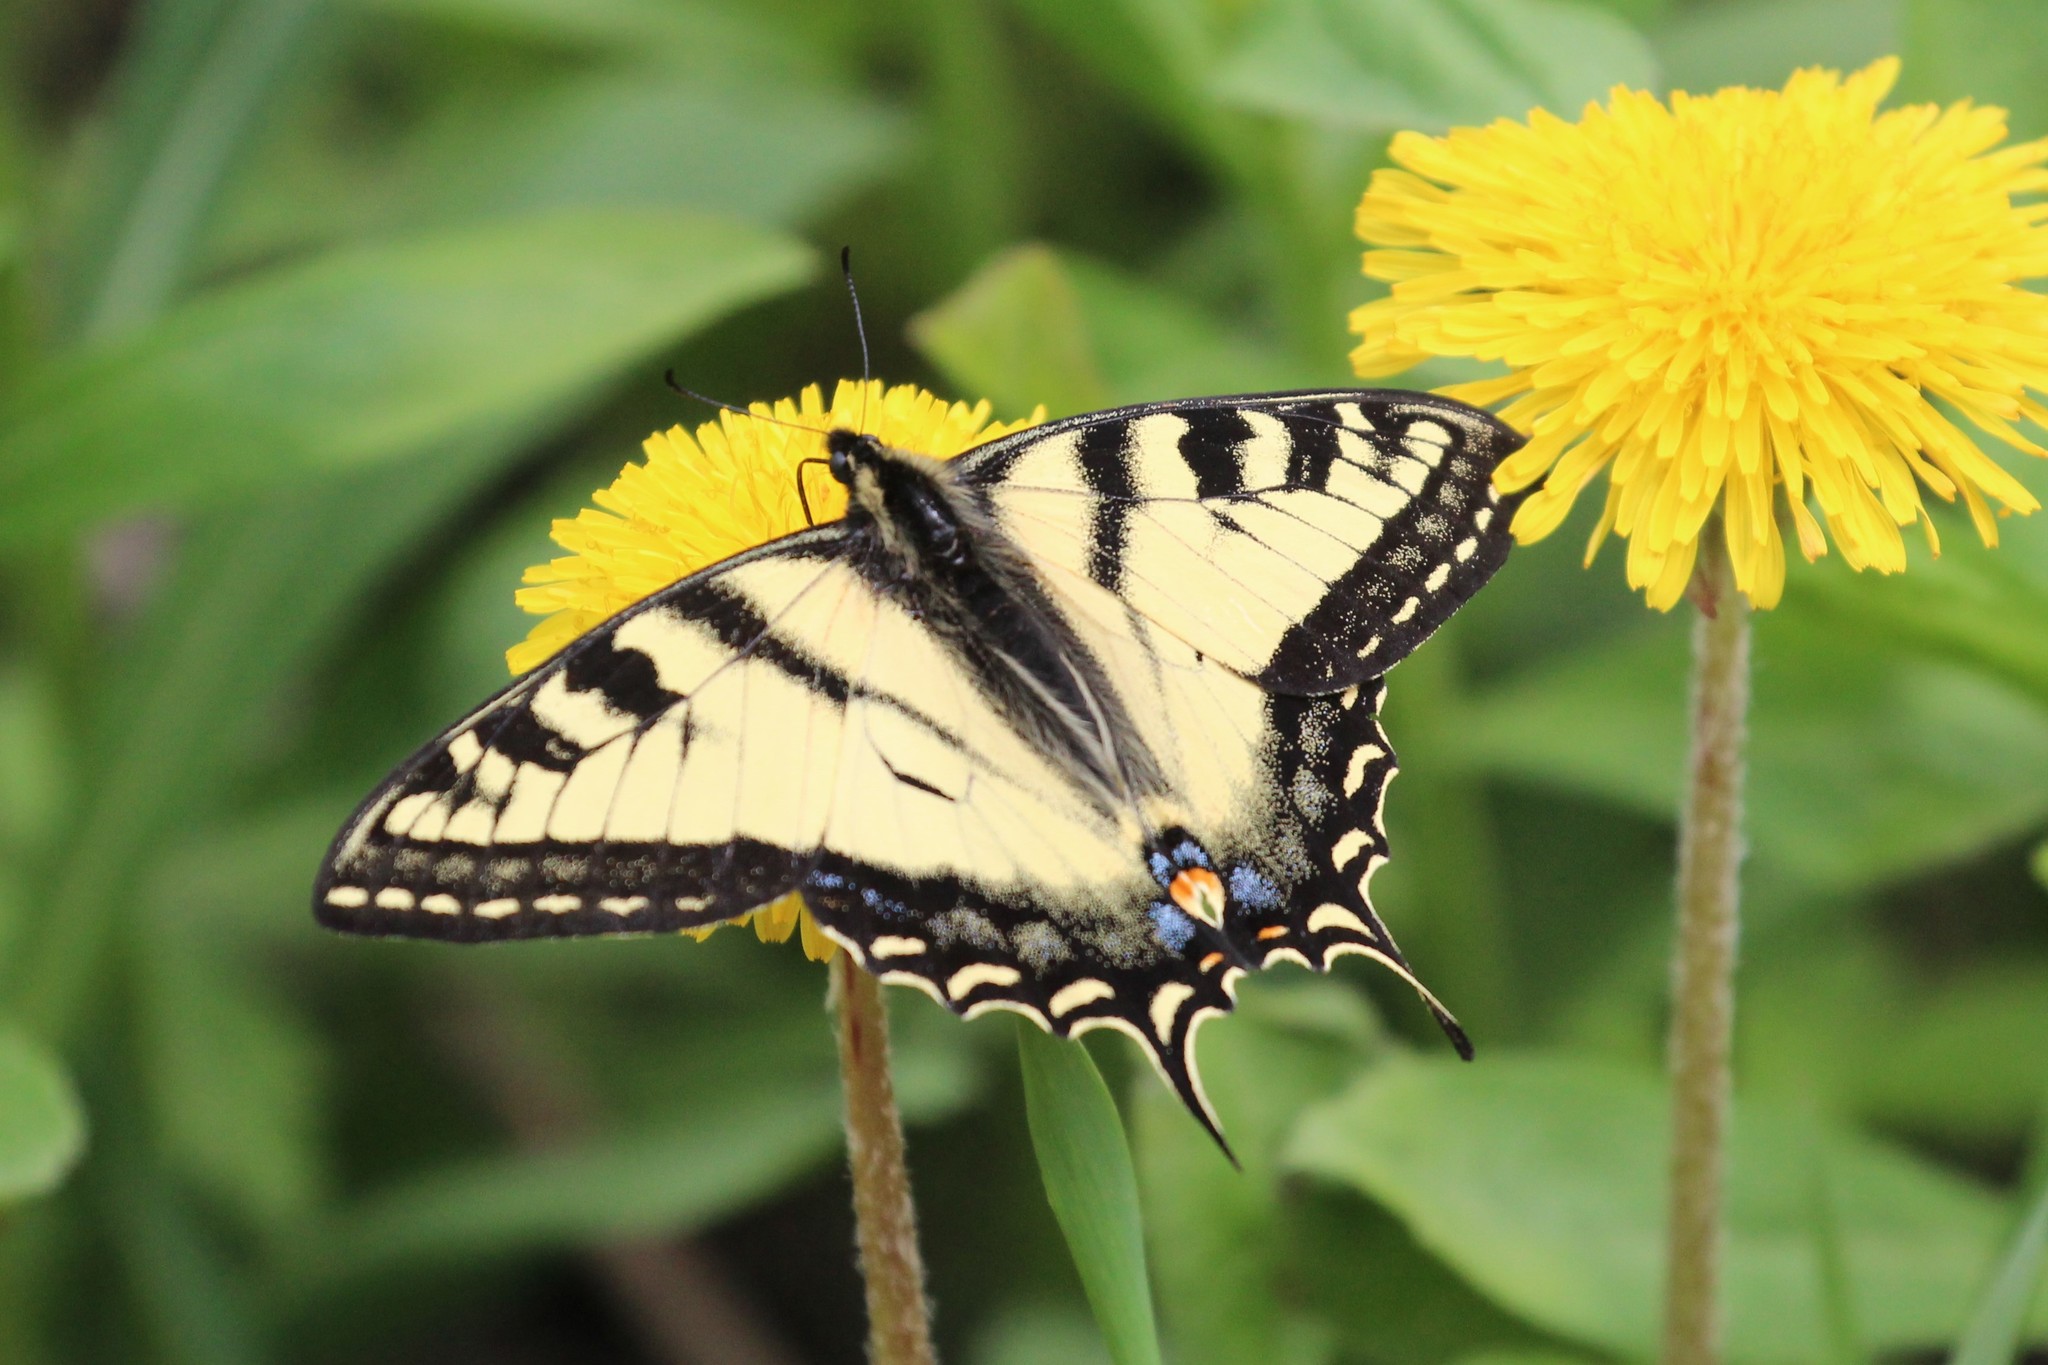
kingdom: Animalia
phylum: Arthropoda
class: Insecta
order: Lepidoptera
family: Papilionidae
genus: Papilio
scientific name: Papilio canadensis
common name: Canadian tiger swallowtail
